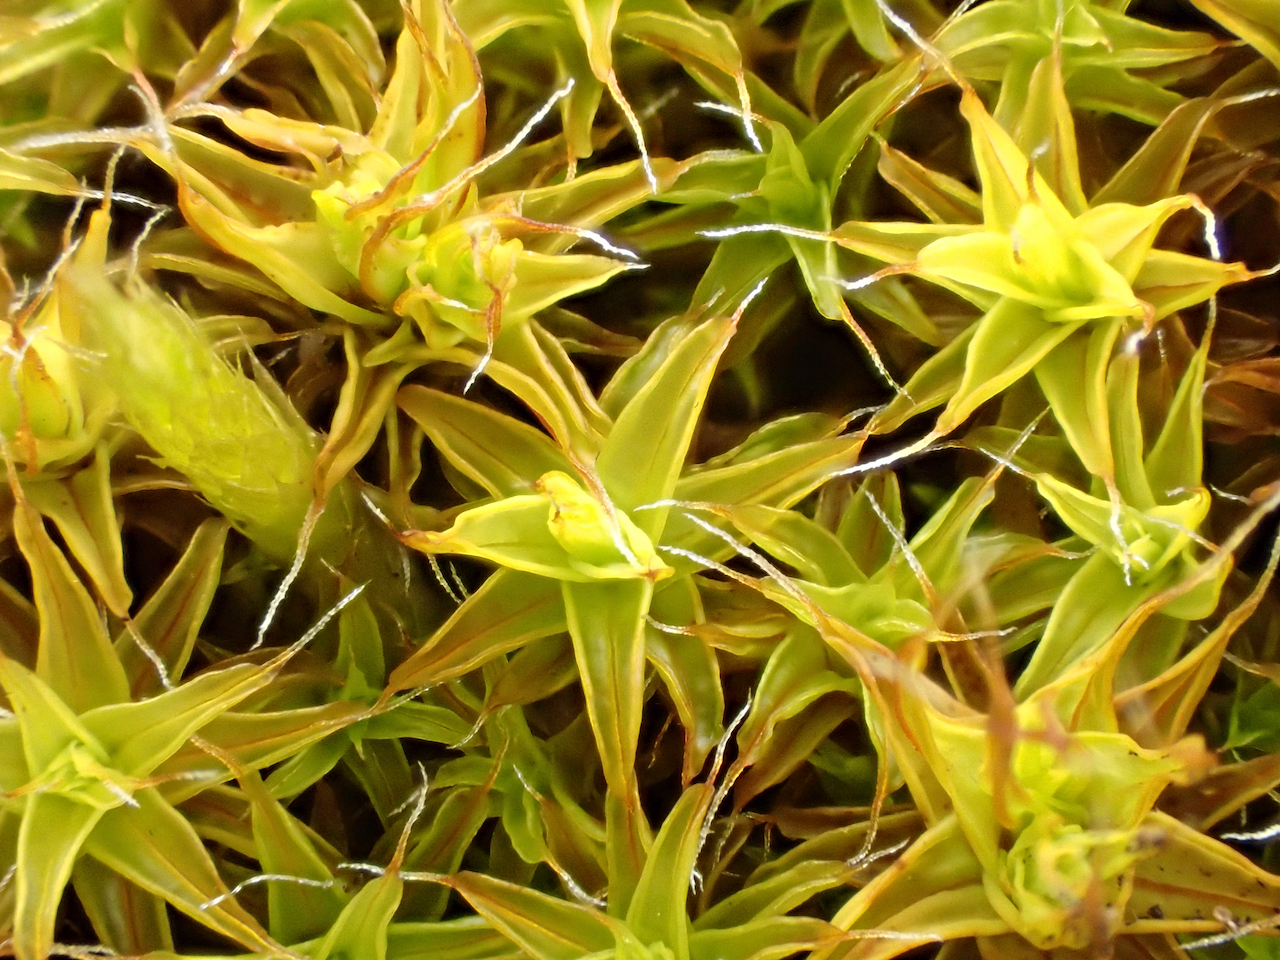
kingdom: Plantae
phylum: Bryophyta
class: Bryopsida
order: Pottiales
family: Pottiaceae
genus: Syntrichia
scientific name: Syntrichia ruralis
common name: Sidewalk screw moss
